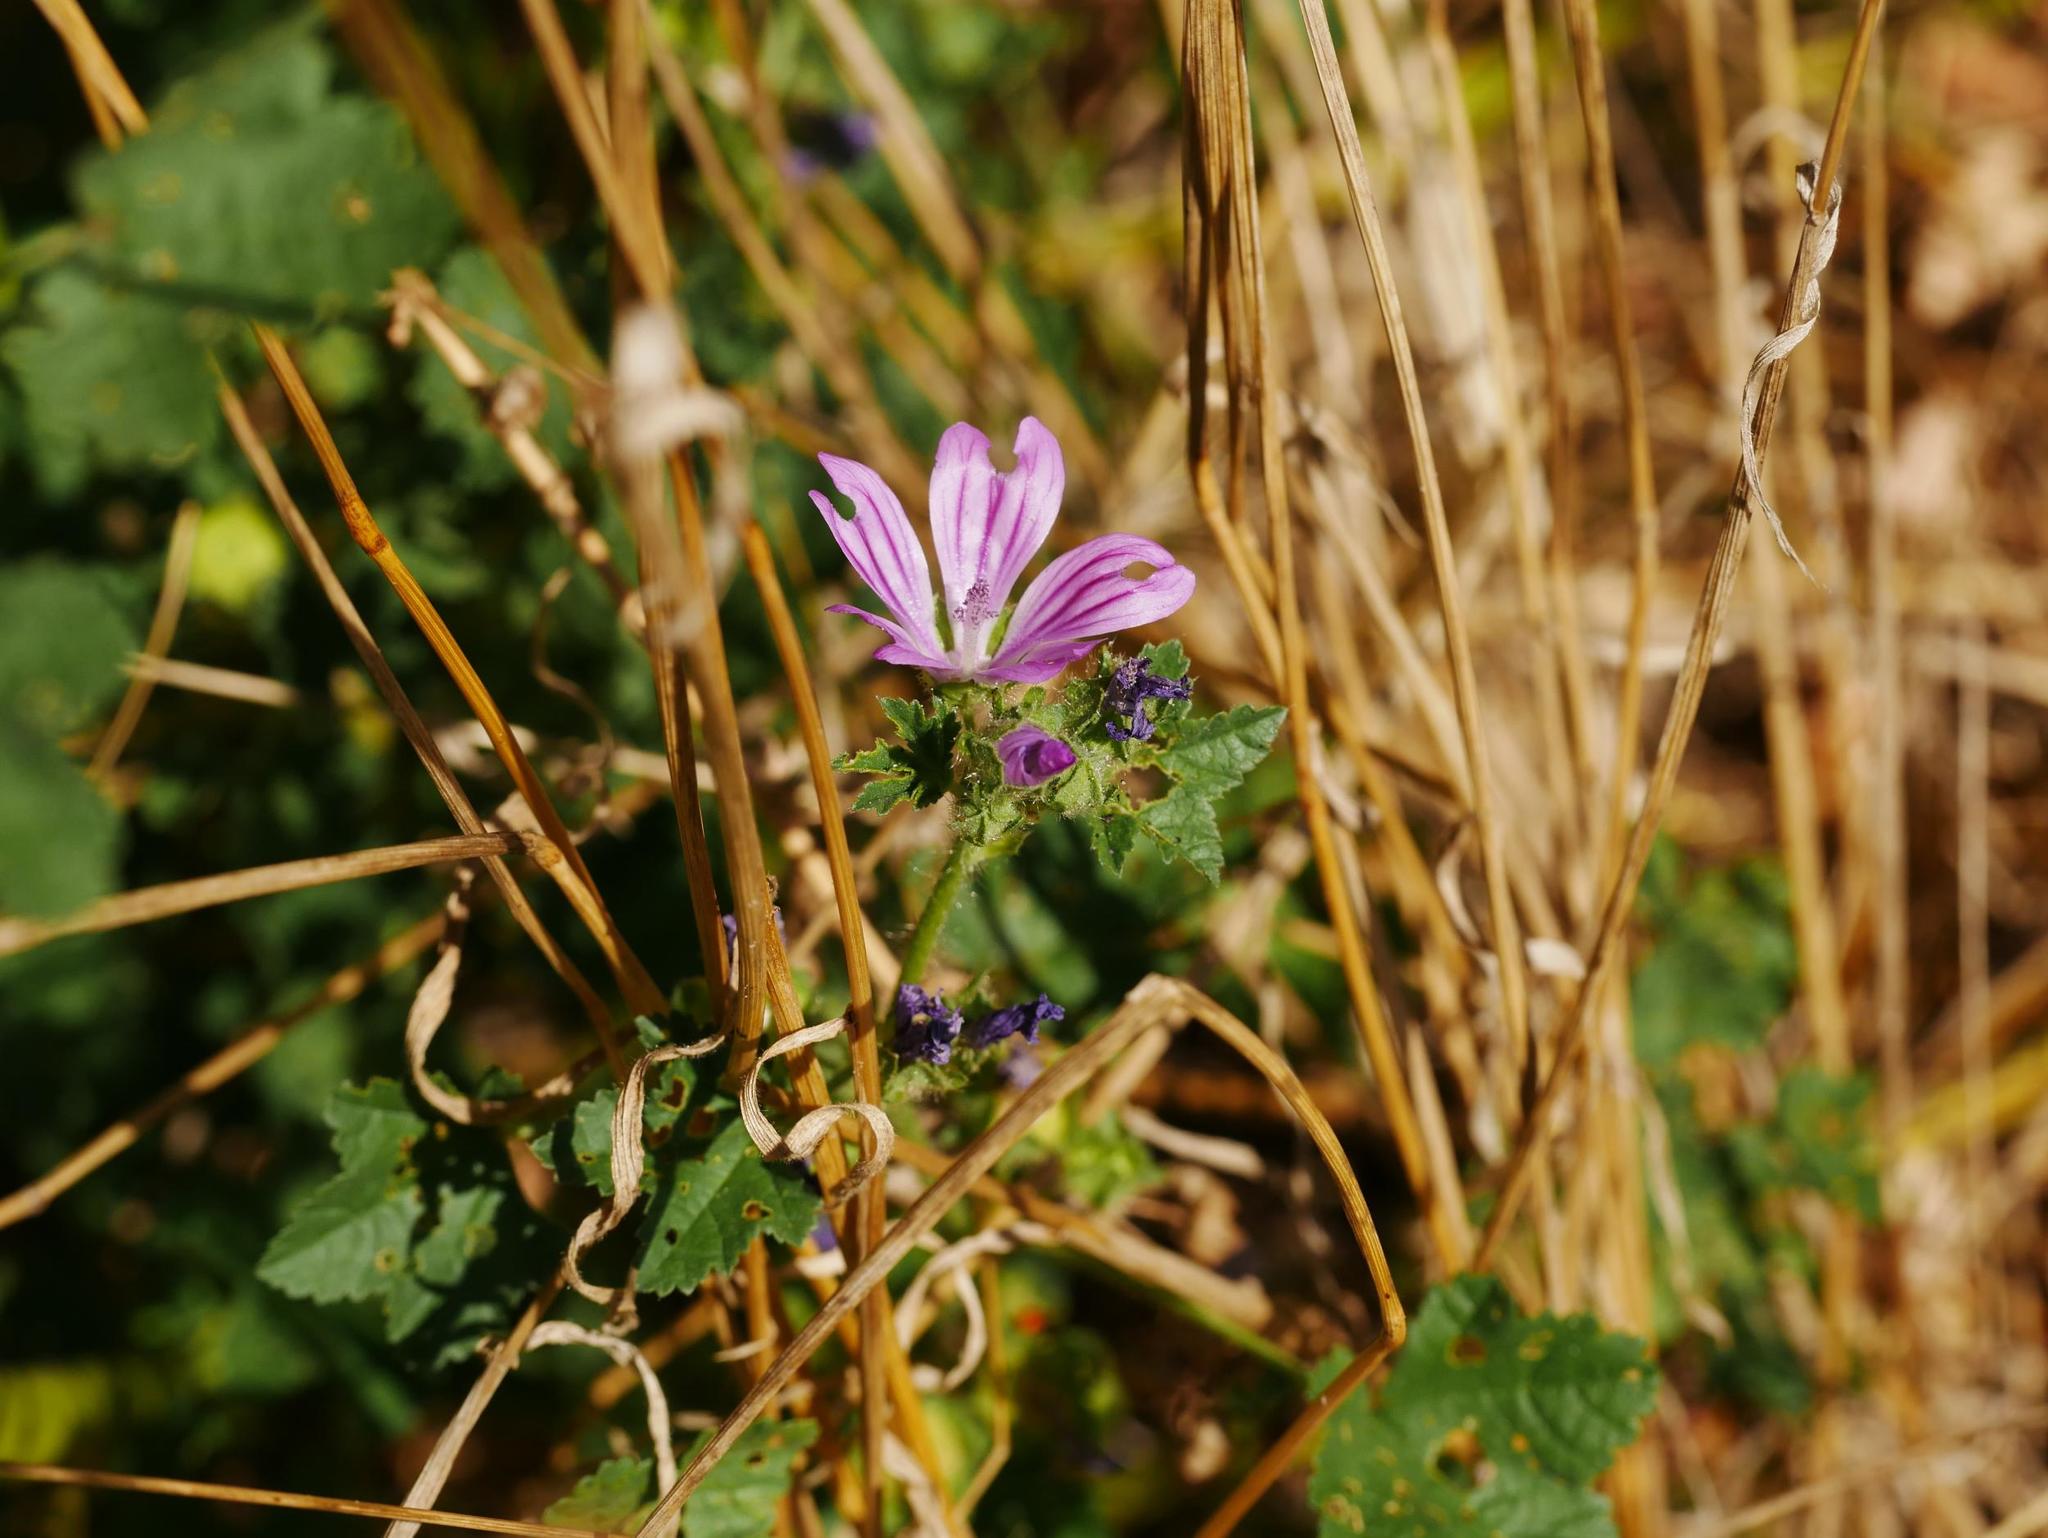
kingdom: Plantae
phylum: Tracheophyta
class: Magnoliopsida
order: Malvales
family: Malvaceae
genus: Malva
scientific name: Malva sylvestris
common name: Common mallow
